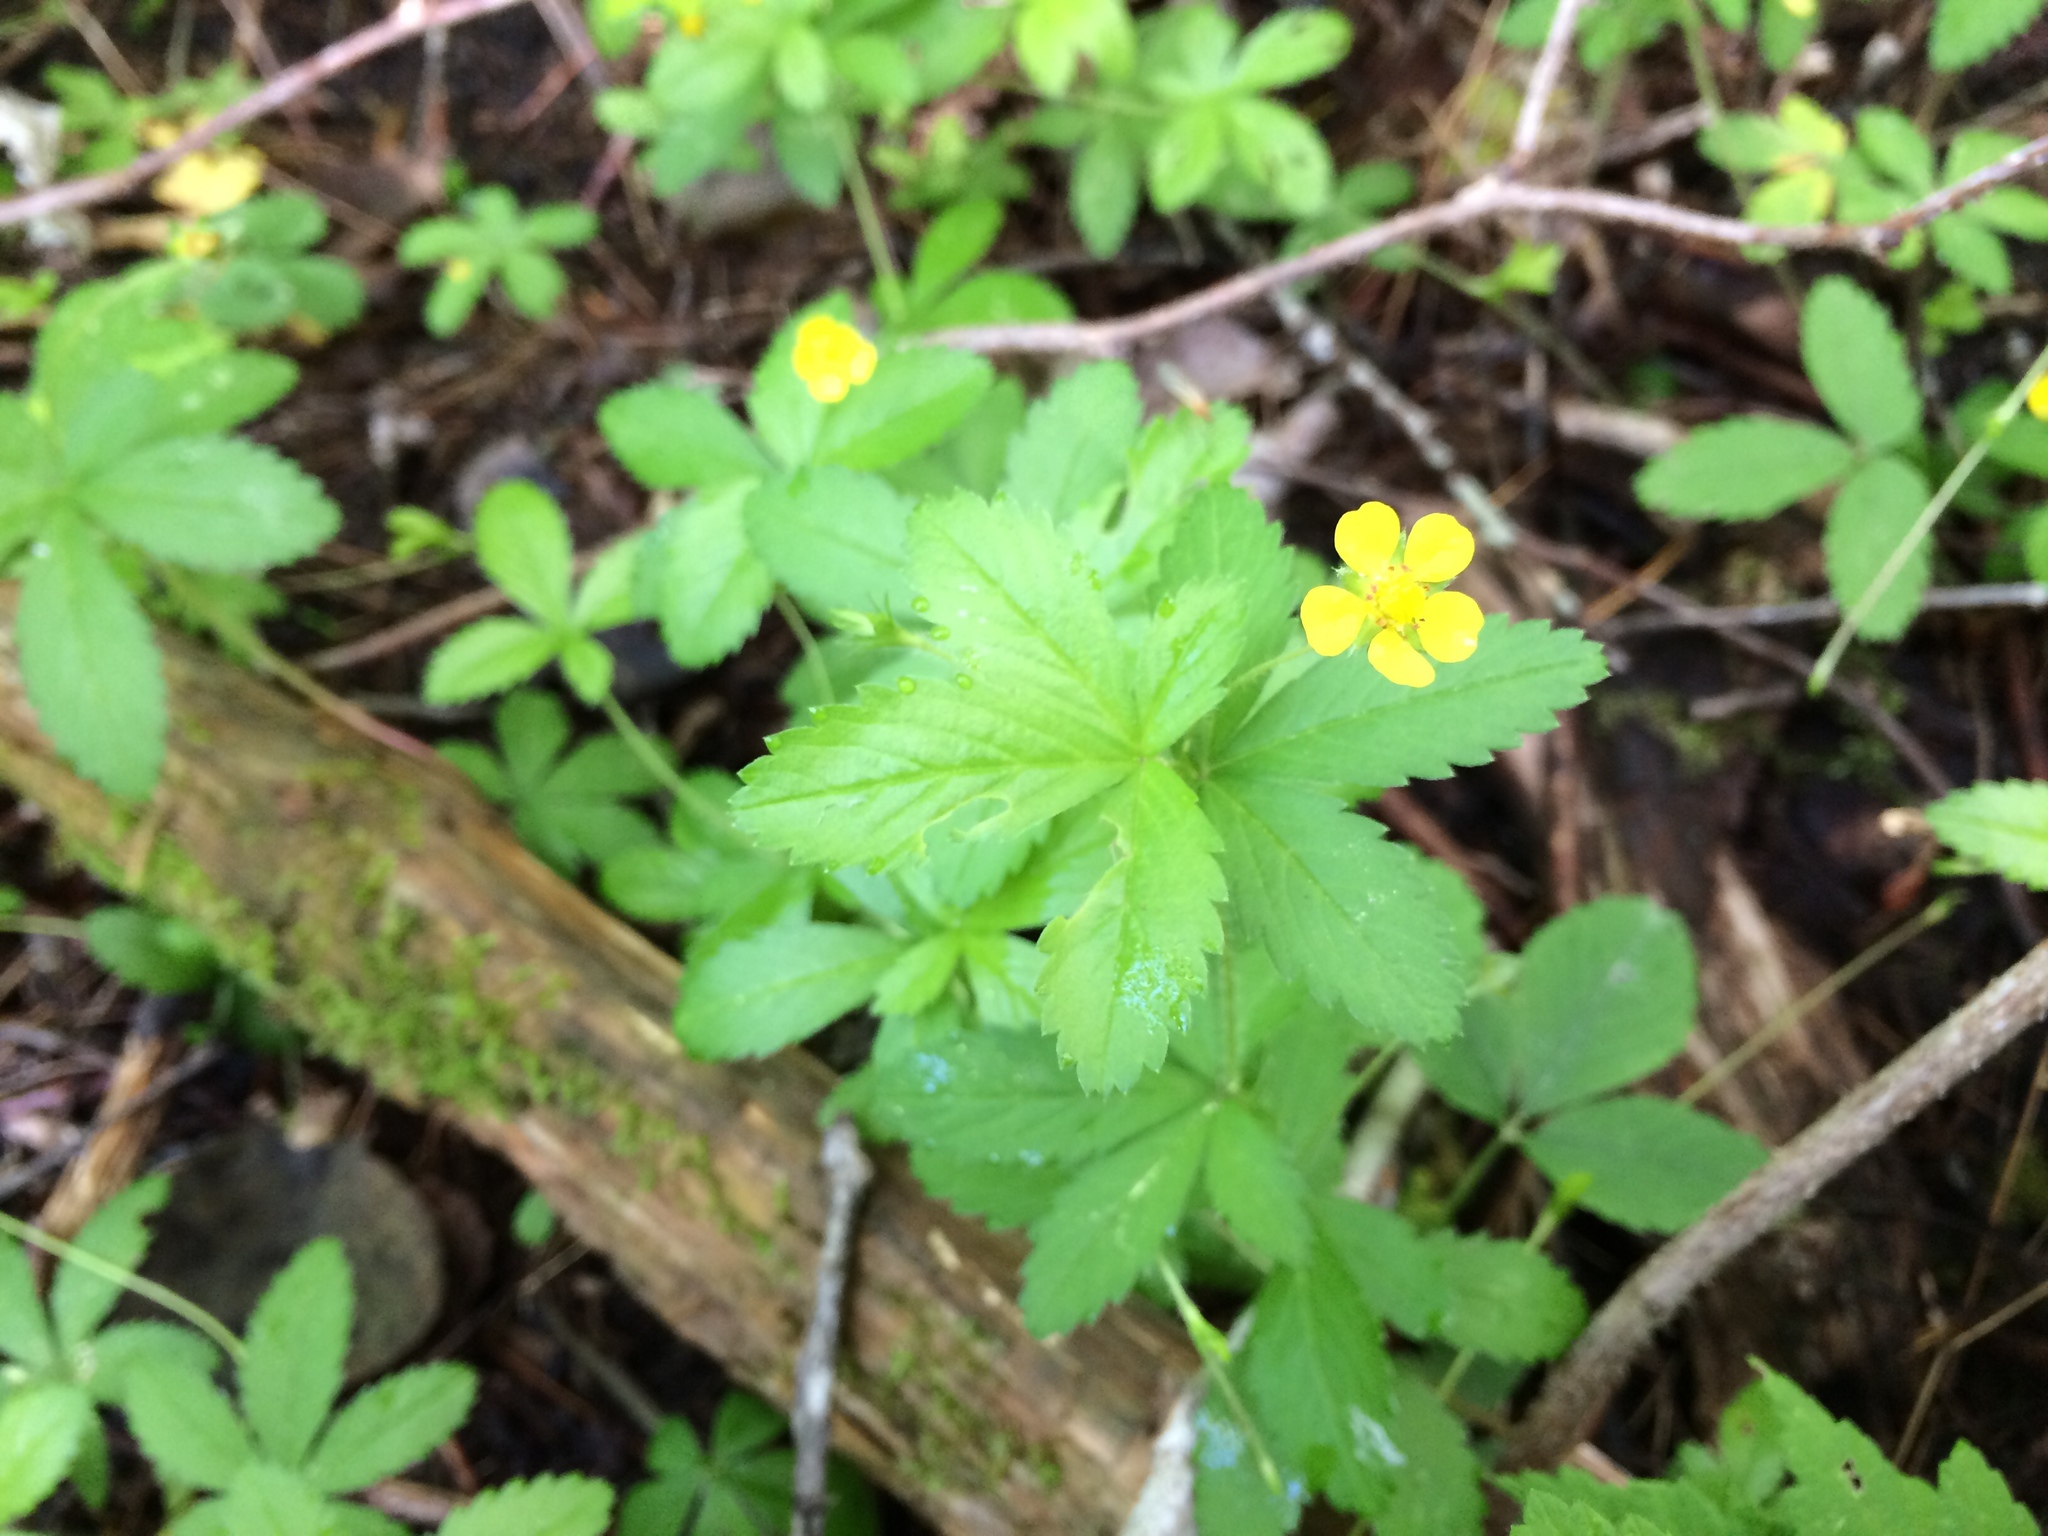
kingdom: Plantae
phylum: Tracheophyta
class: Magnoliopsida
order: Rosales
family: Rosaceae
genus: Potentilla
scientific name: Potentilla simplex
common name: Old field cinquefoil
